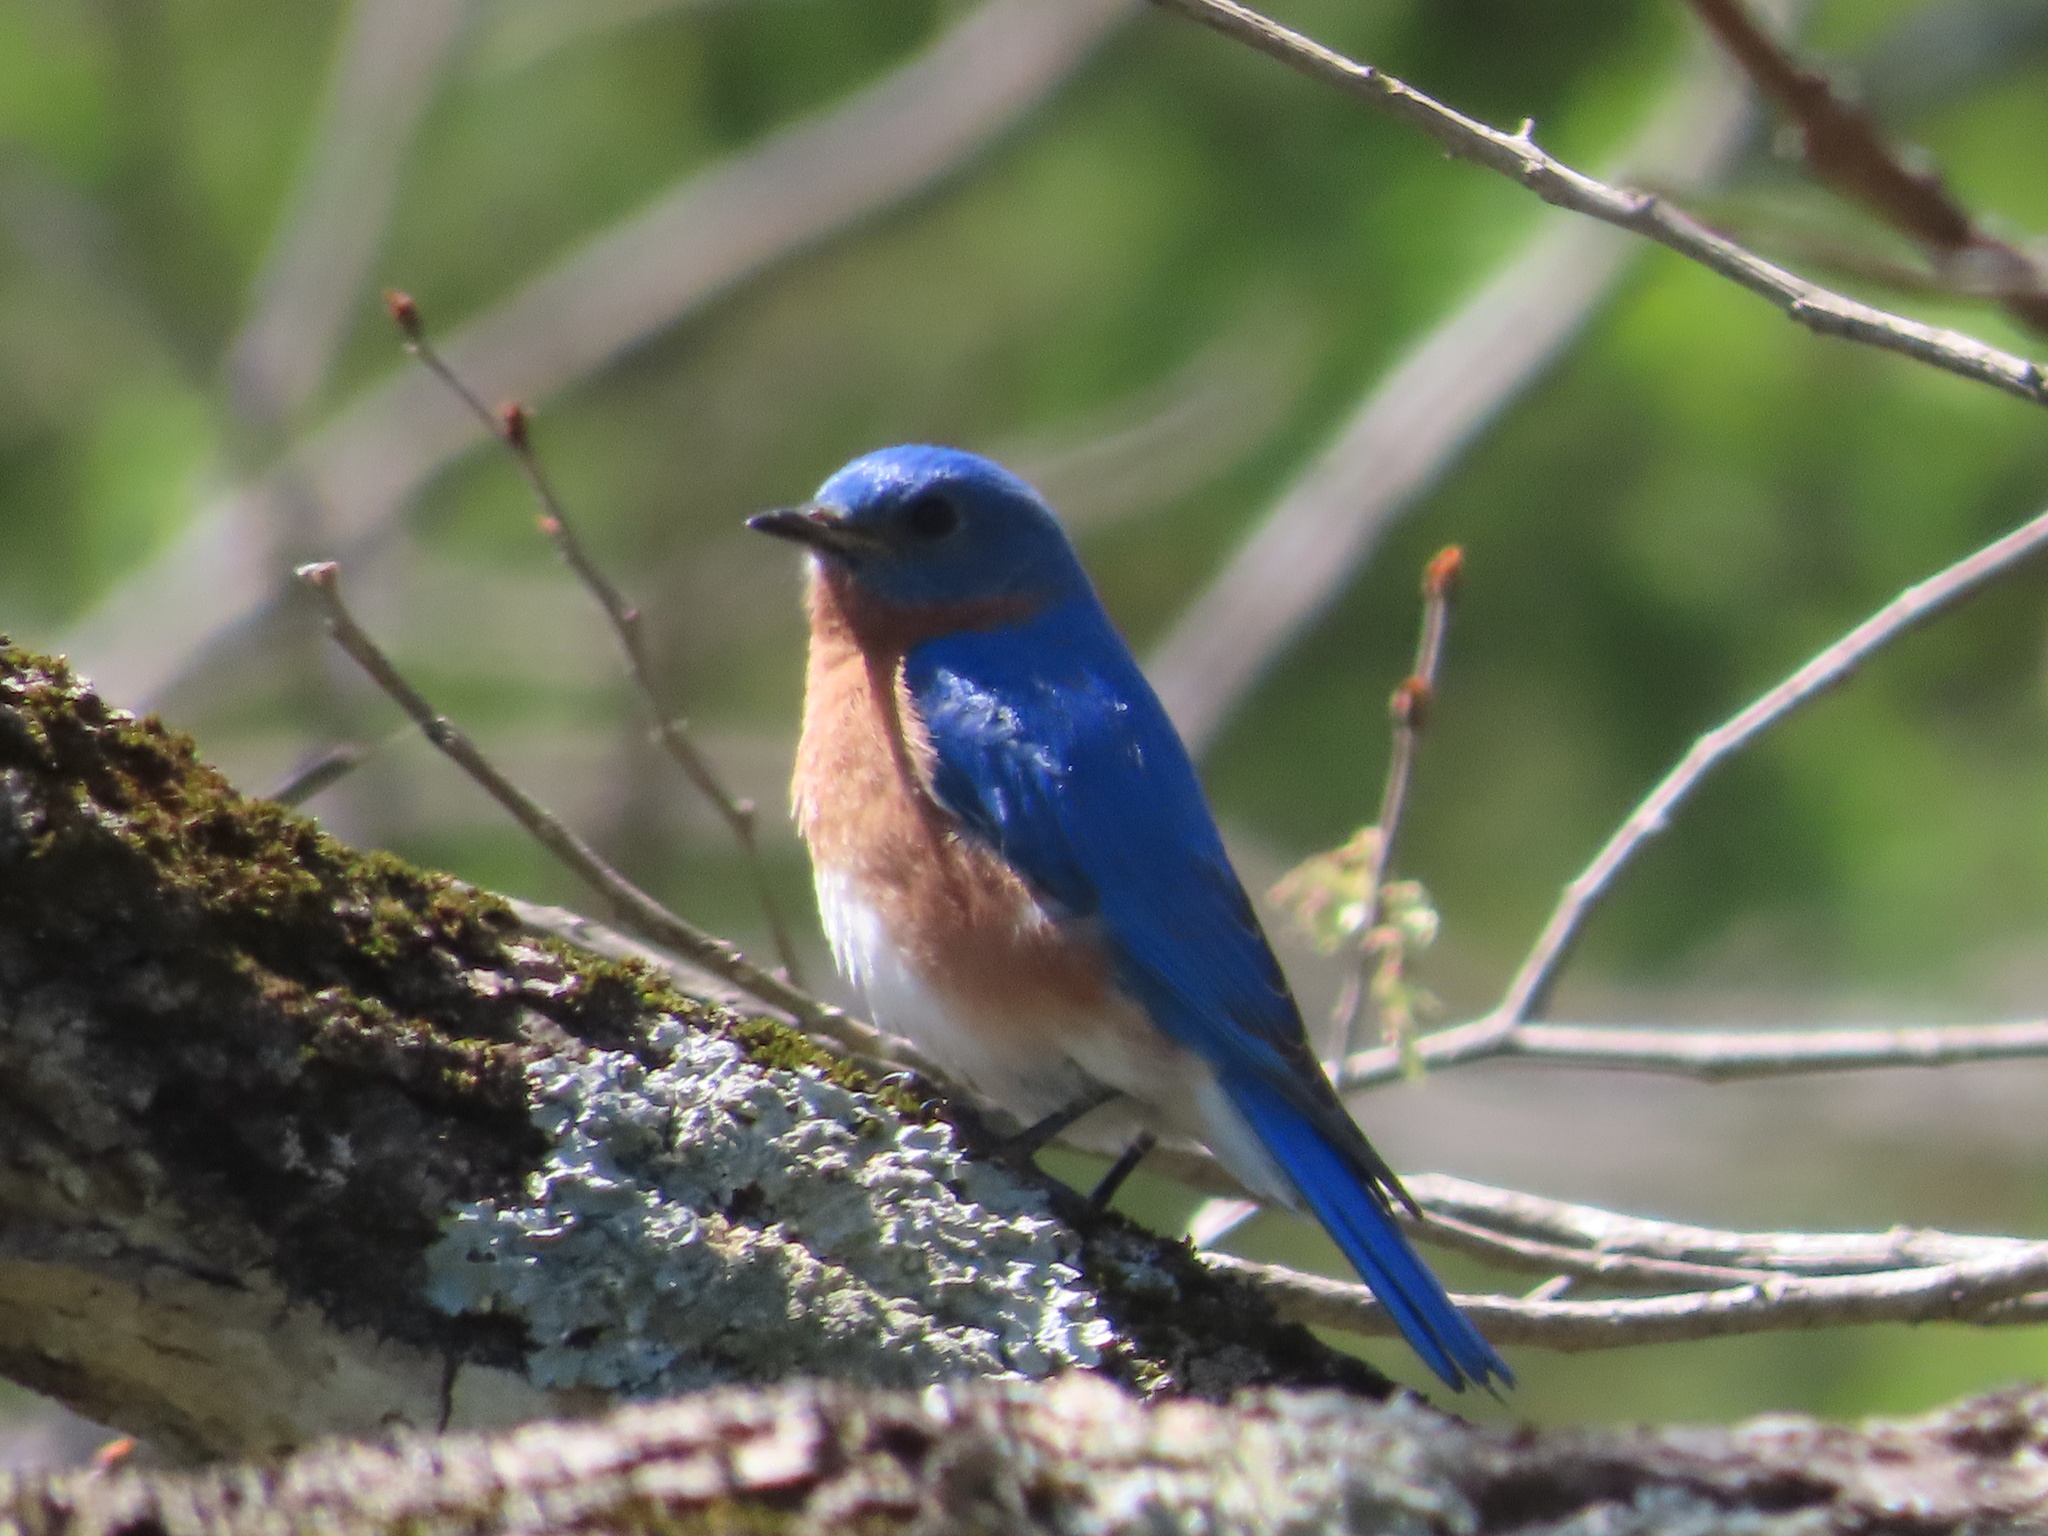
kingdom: Animalia
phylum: Chordata
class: Aves
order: Passeriformes
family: Turdidae
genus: Sialia
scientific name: Sialia sialis
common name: Eastern bluebird
